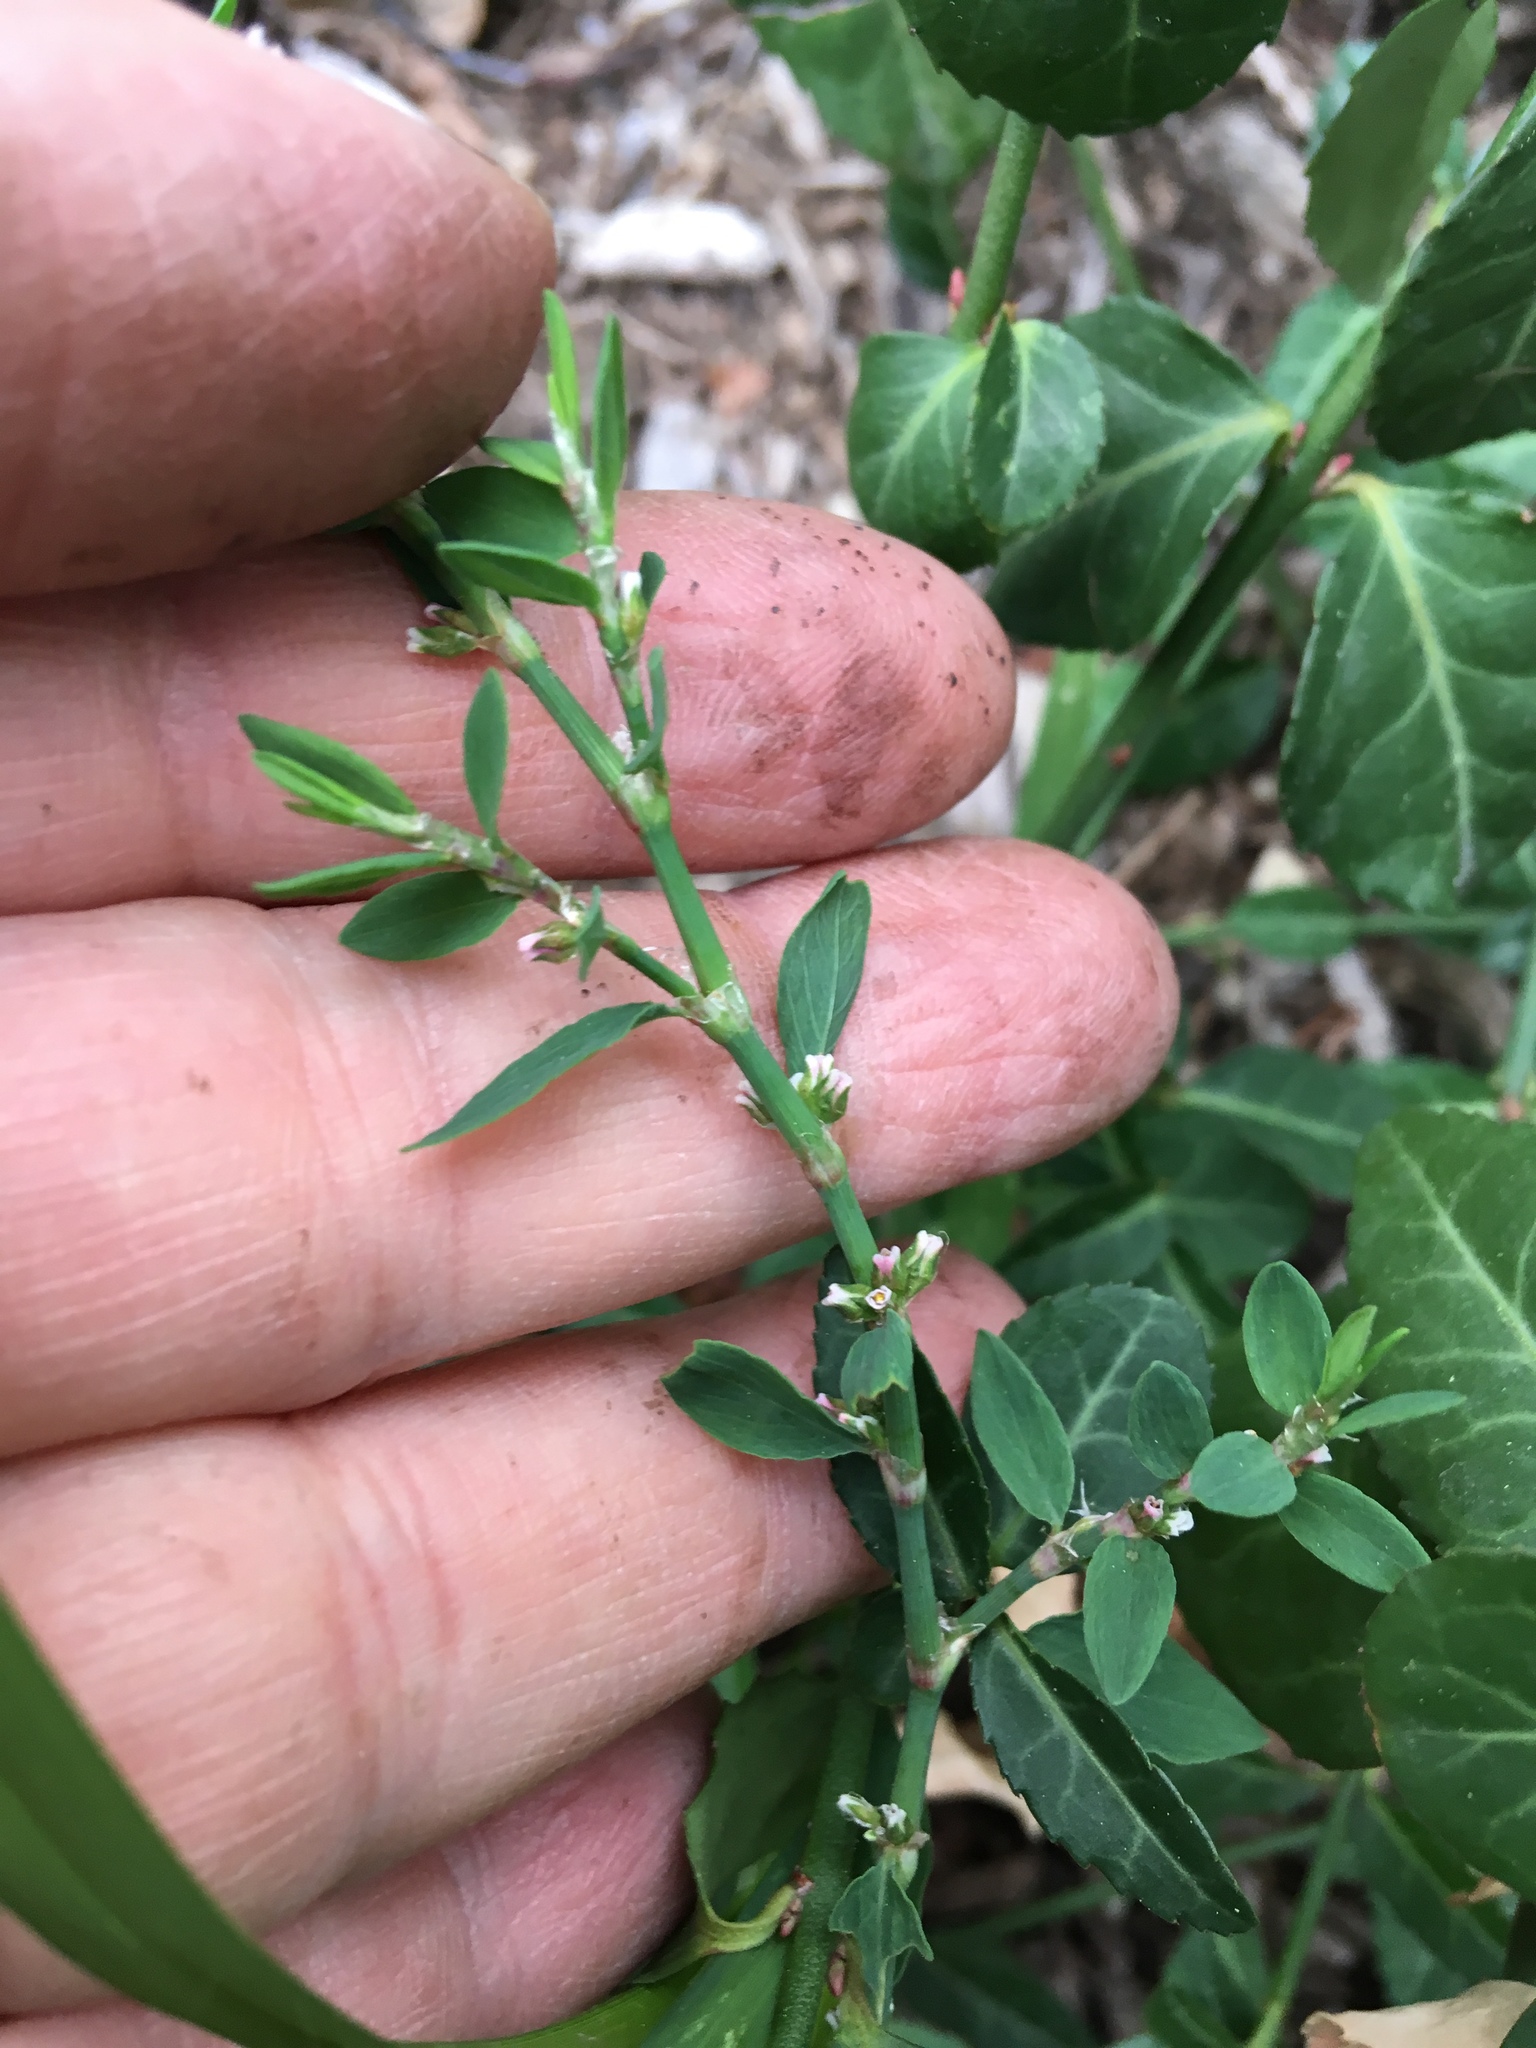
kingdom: Plantae
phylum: Tracheophyta
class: Magnoliopsida
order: Caryophyllales
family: Polygonaceae
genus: Polygonum
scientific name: Polygonum aviculare
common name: Prostrate knotweed
